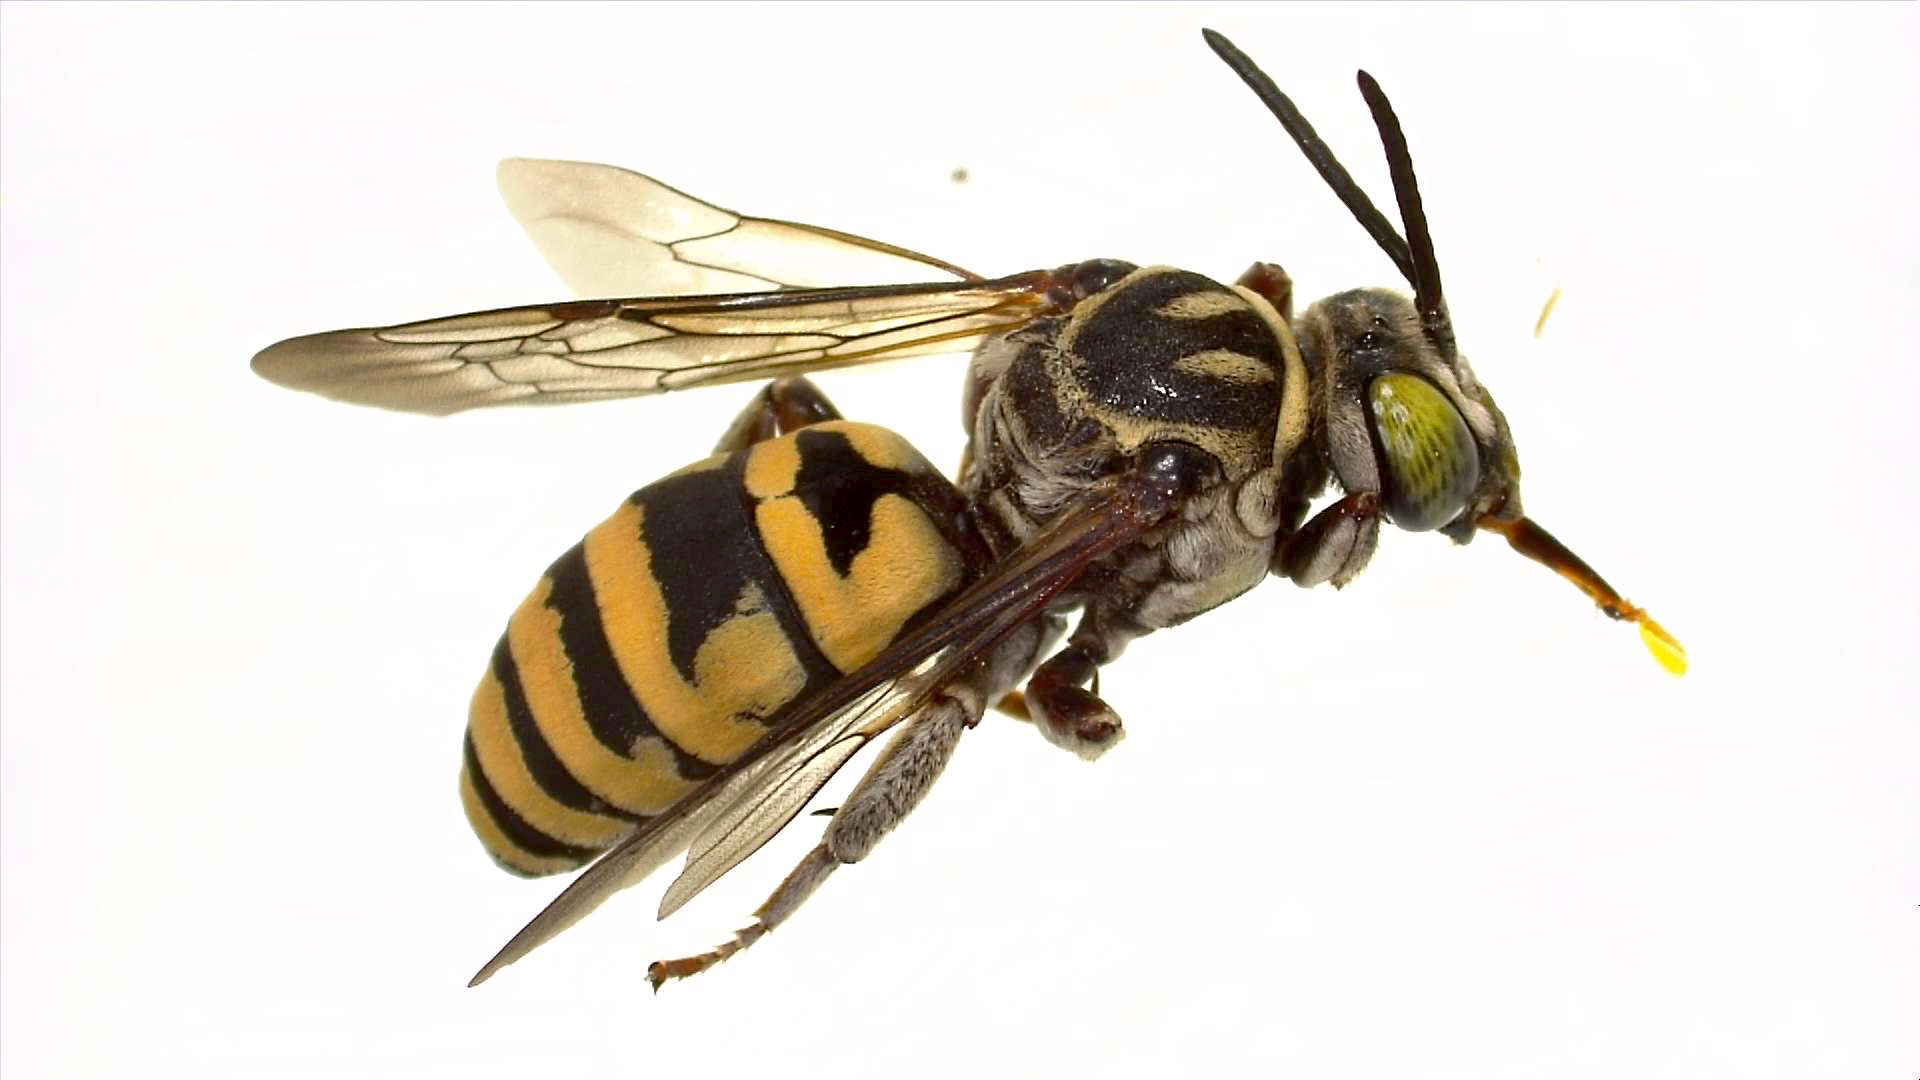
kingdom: Animalia
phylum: Arthropoda
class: Insecta
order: Hymenoptera
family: Apidae
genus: Triepeolus
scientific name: Triepeolus kathrynae
